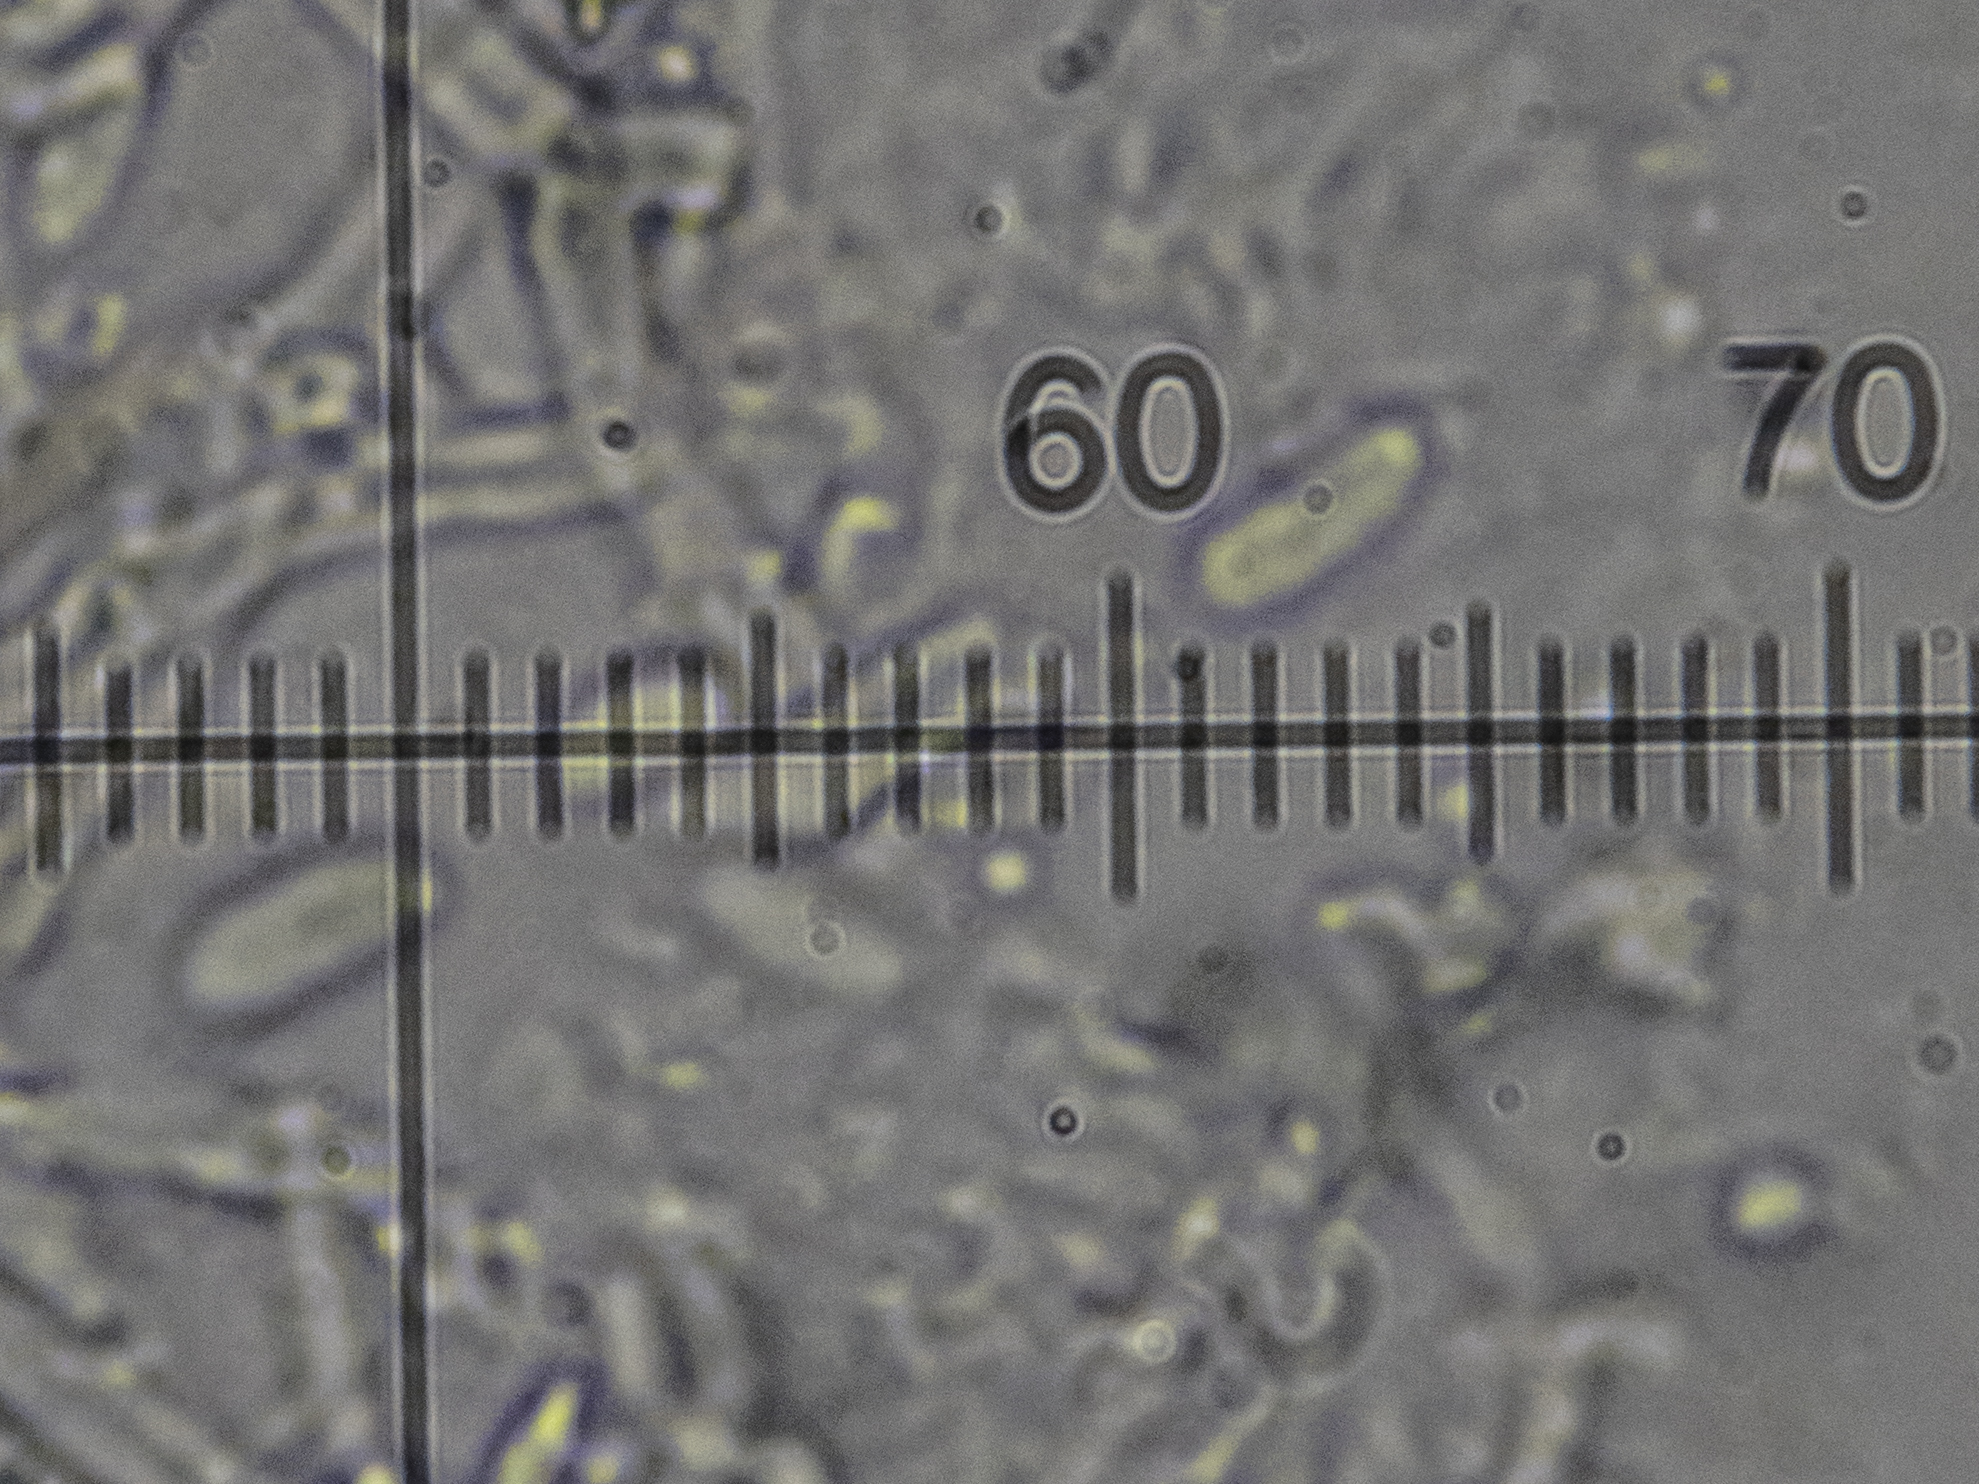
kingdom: Fungi
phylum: Basidiomycota
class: Agaricomycetes
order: Polyporales
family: Hyphodermataceae
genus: Hyphoderma
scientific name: Hyphoderma setigerum
